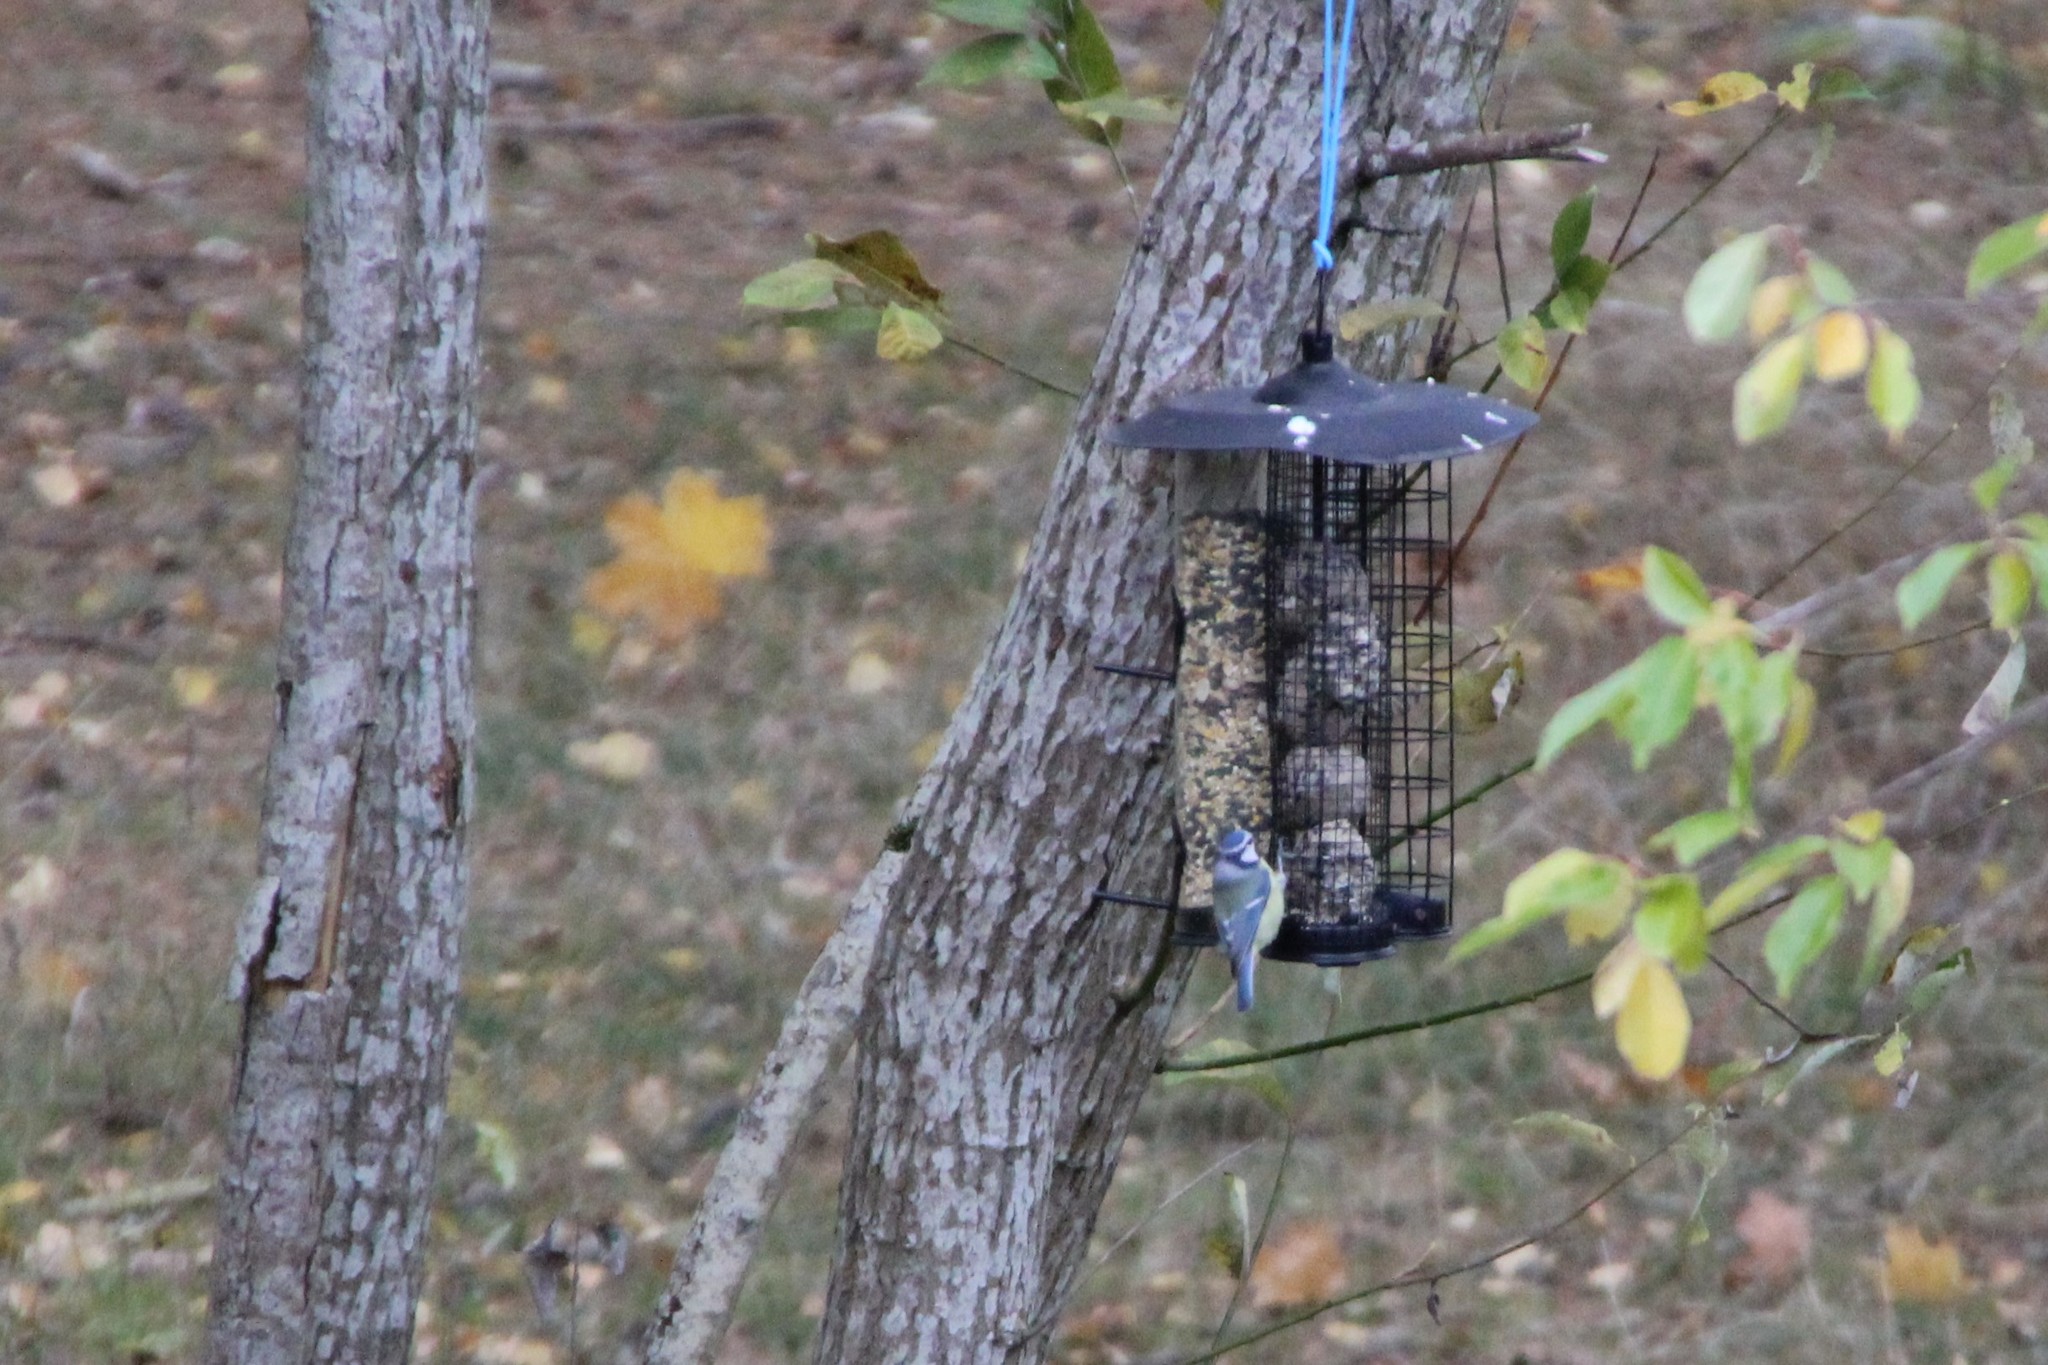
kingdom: Animalia
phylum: Chordata
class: Aves
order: Passeriformes
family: Paridae
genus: Cyanistes
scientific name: Cyanistes caeruleus
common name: Eurasian blue tit
